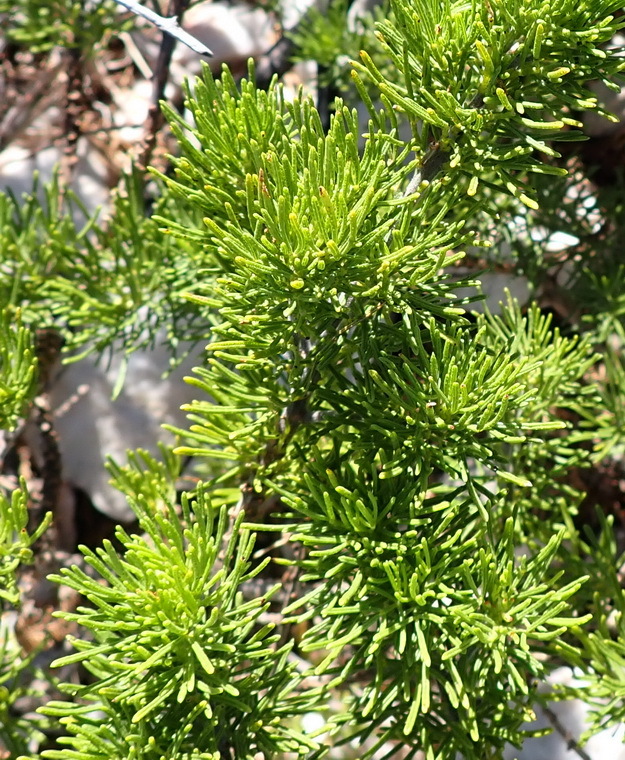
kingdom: Plantae
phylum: Tracheophyta
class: Magnoliopsida
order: Fabales
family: Fabaceae
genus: Psoralea
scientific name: Psoralea vanberkelae
